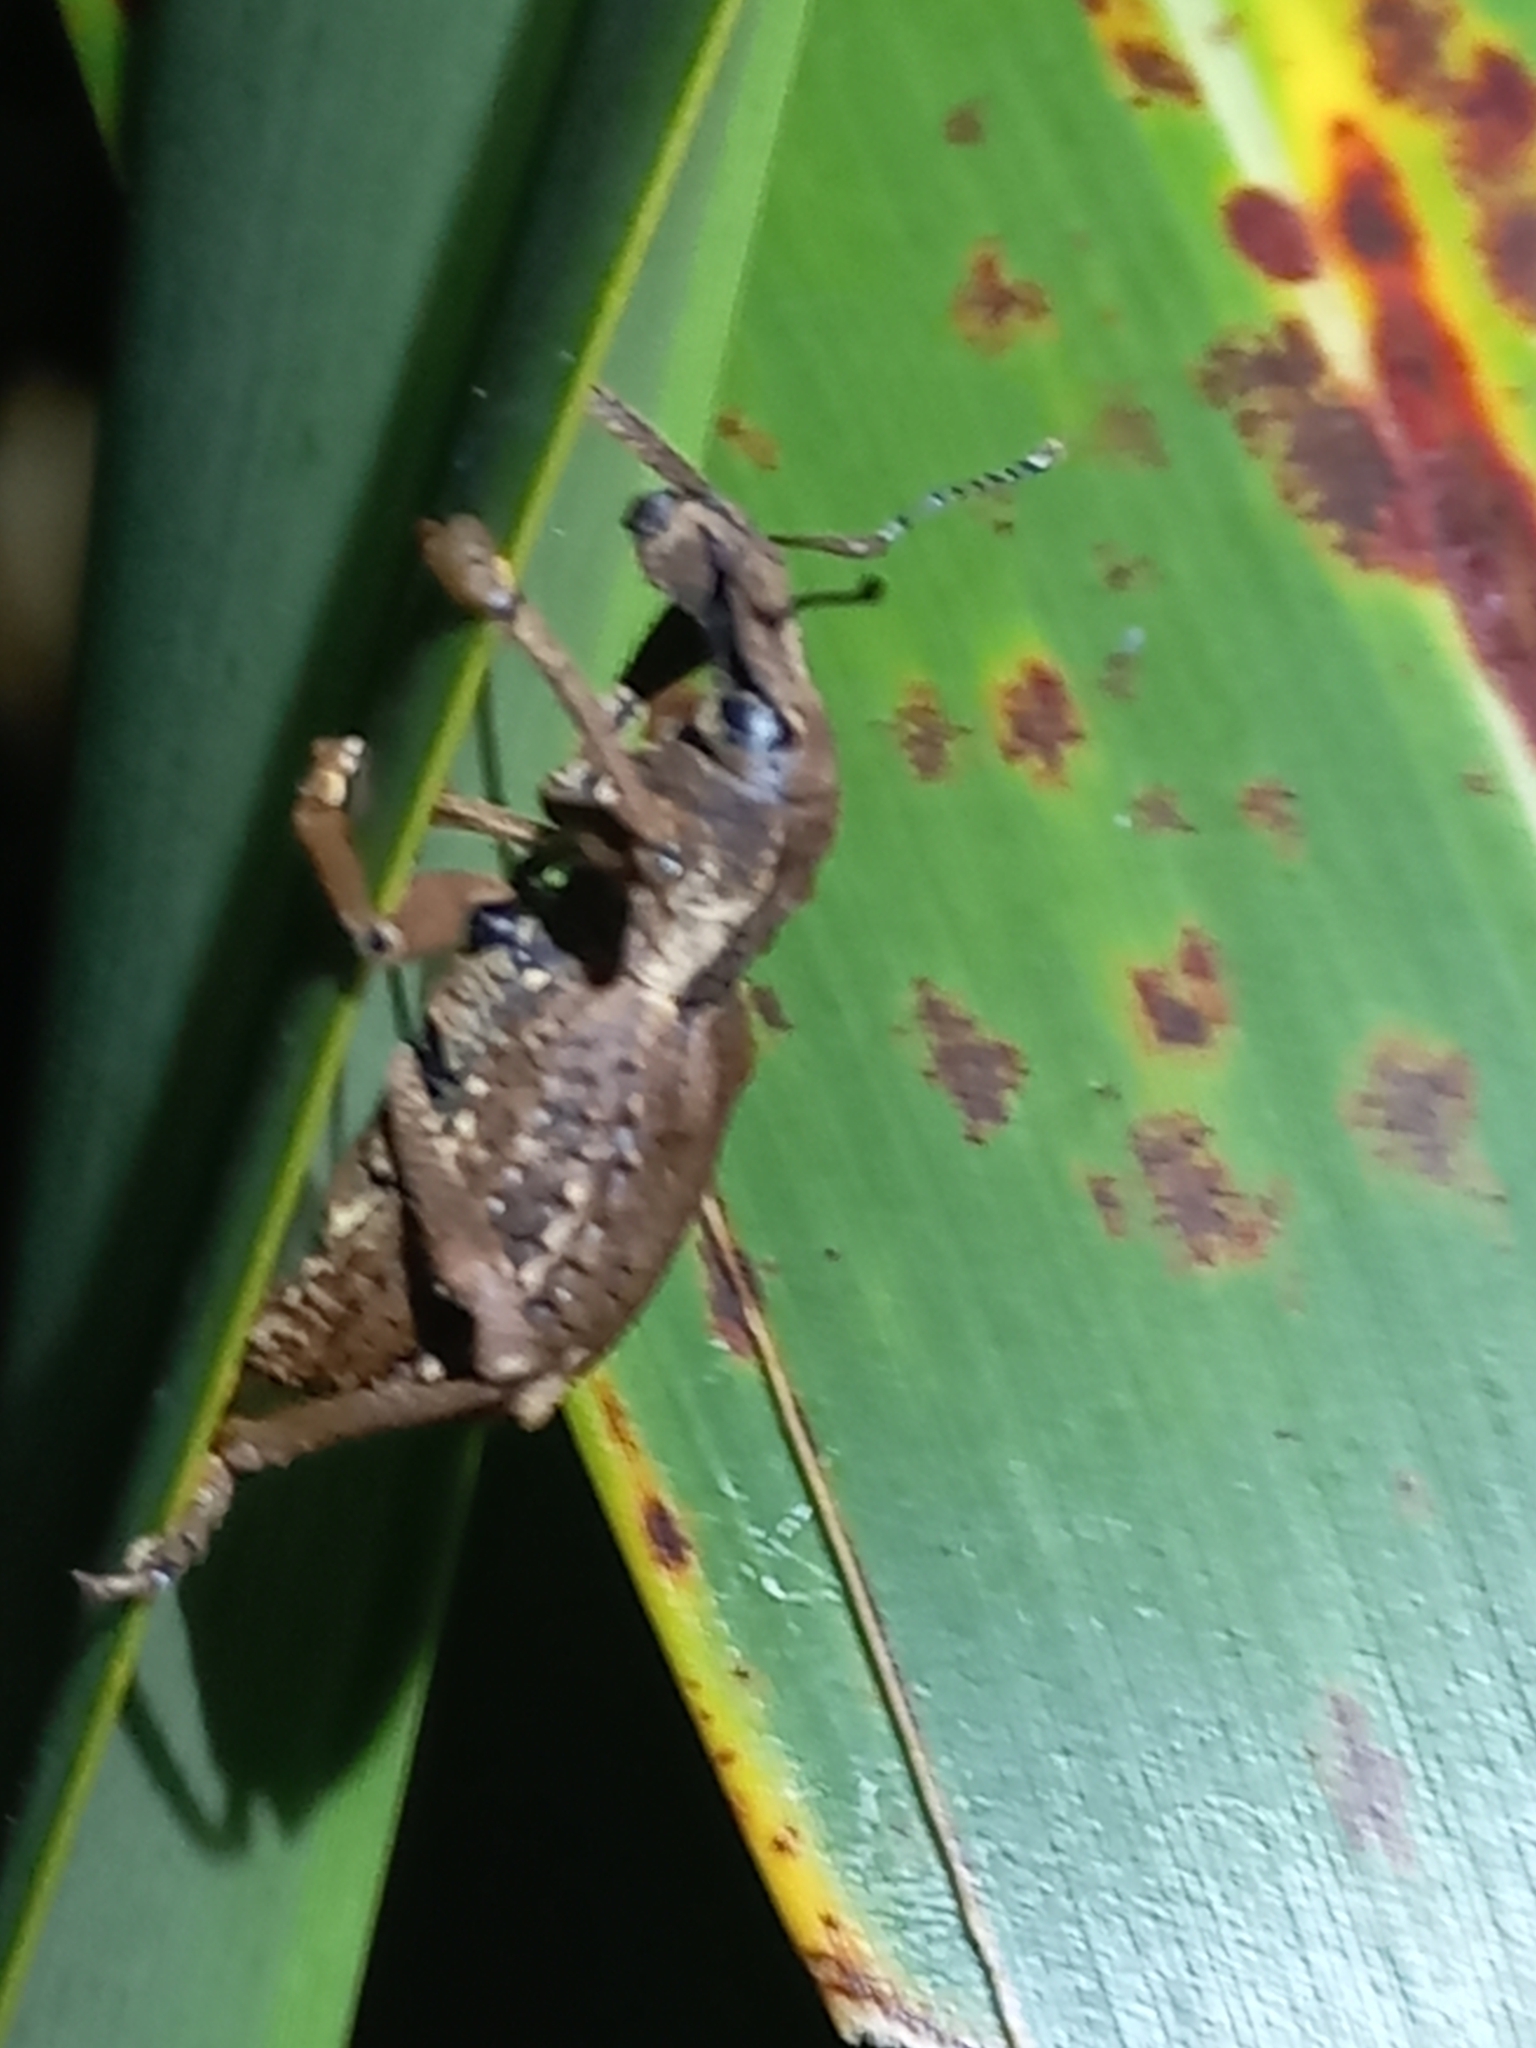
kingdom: Animalia
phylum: Arthropoda
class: Insecta
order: Coleoptera
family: Curculionidae
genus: Anagotus
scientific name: Anagotus fairburni
